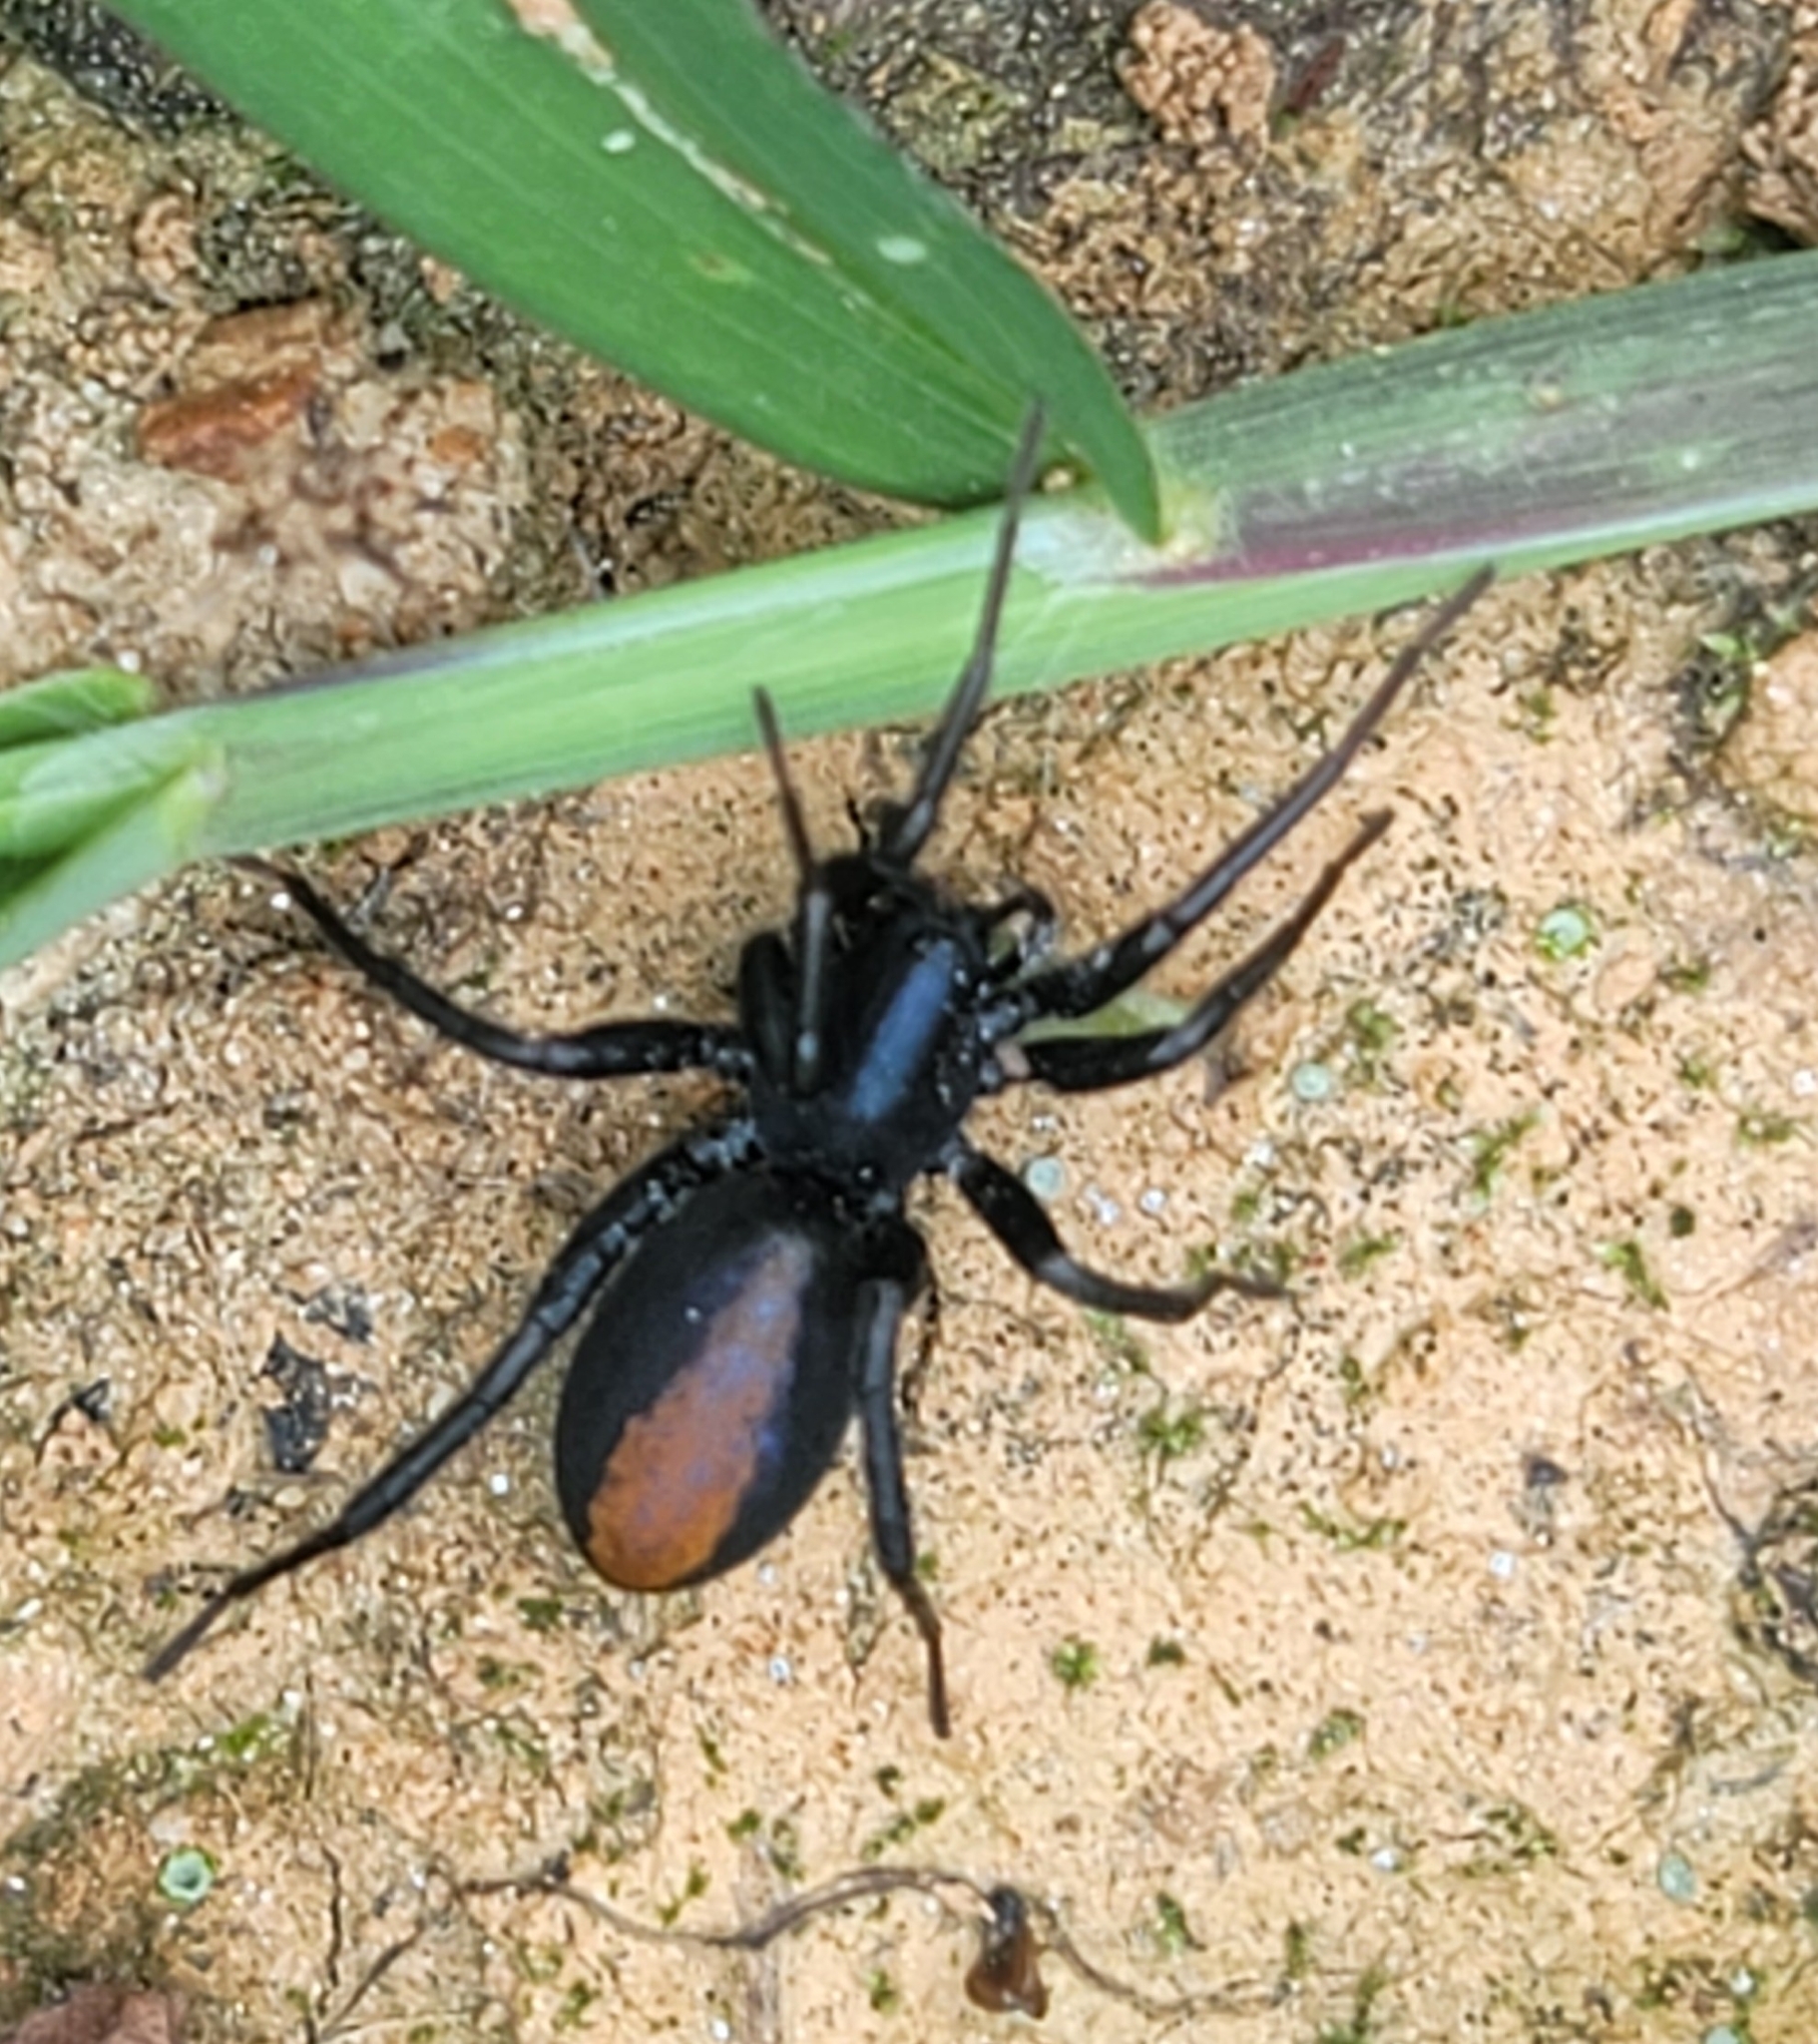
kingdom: Animalia
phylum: Arthropoda
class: Arachnida
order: Araneae
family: Corinnidae
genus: Castianeira
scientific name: Castianeira descripta
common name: Red-spotted ant-mimic sac spider
